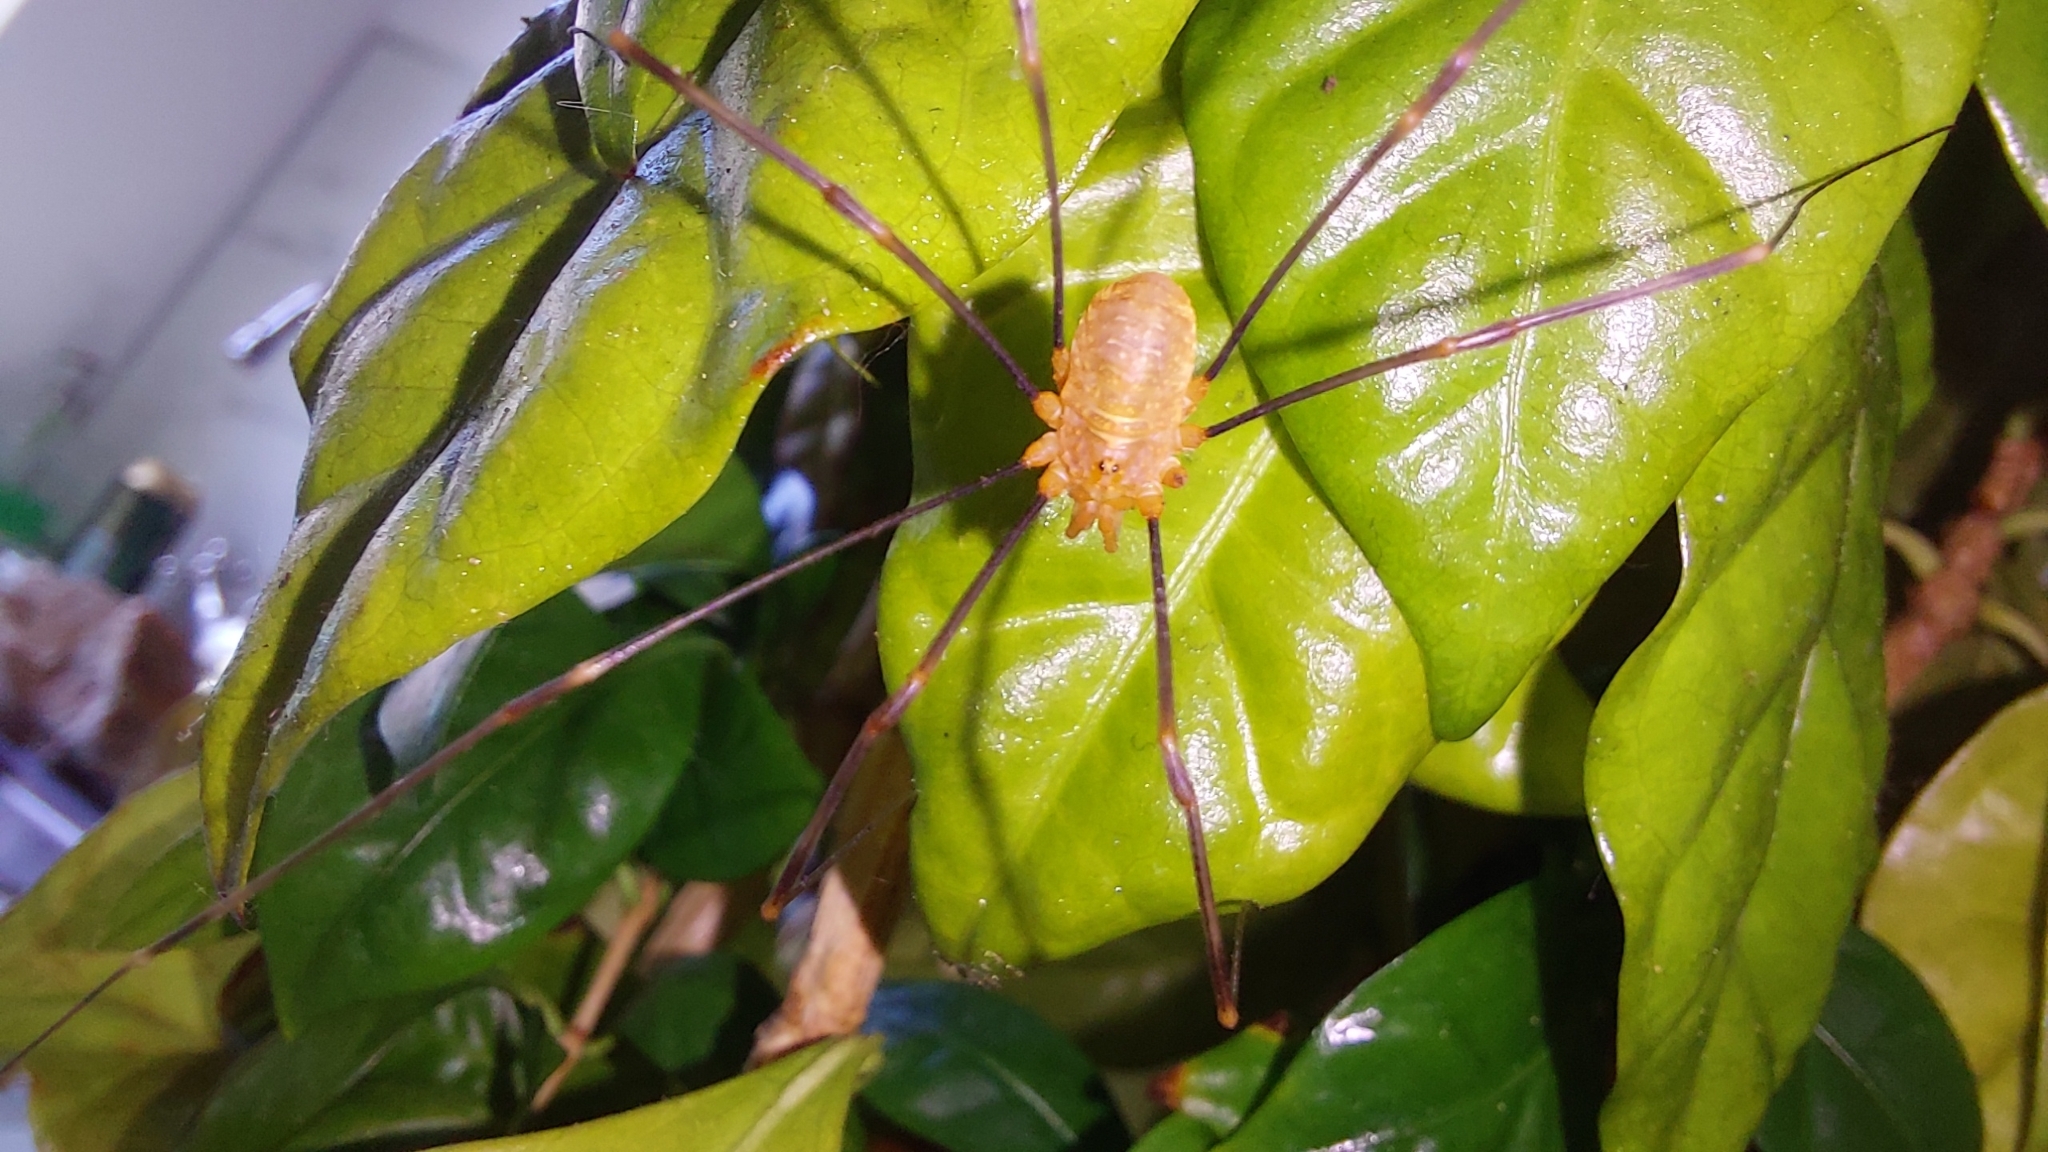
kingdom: Animalia
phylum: Arthropoda
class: Arachnida
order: Opiliones
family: Phalangiidae
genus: Opilio
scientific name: Opilio canestrinii
